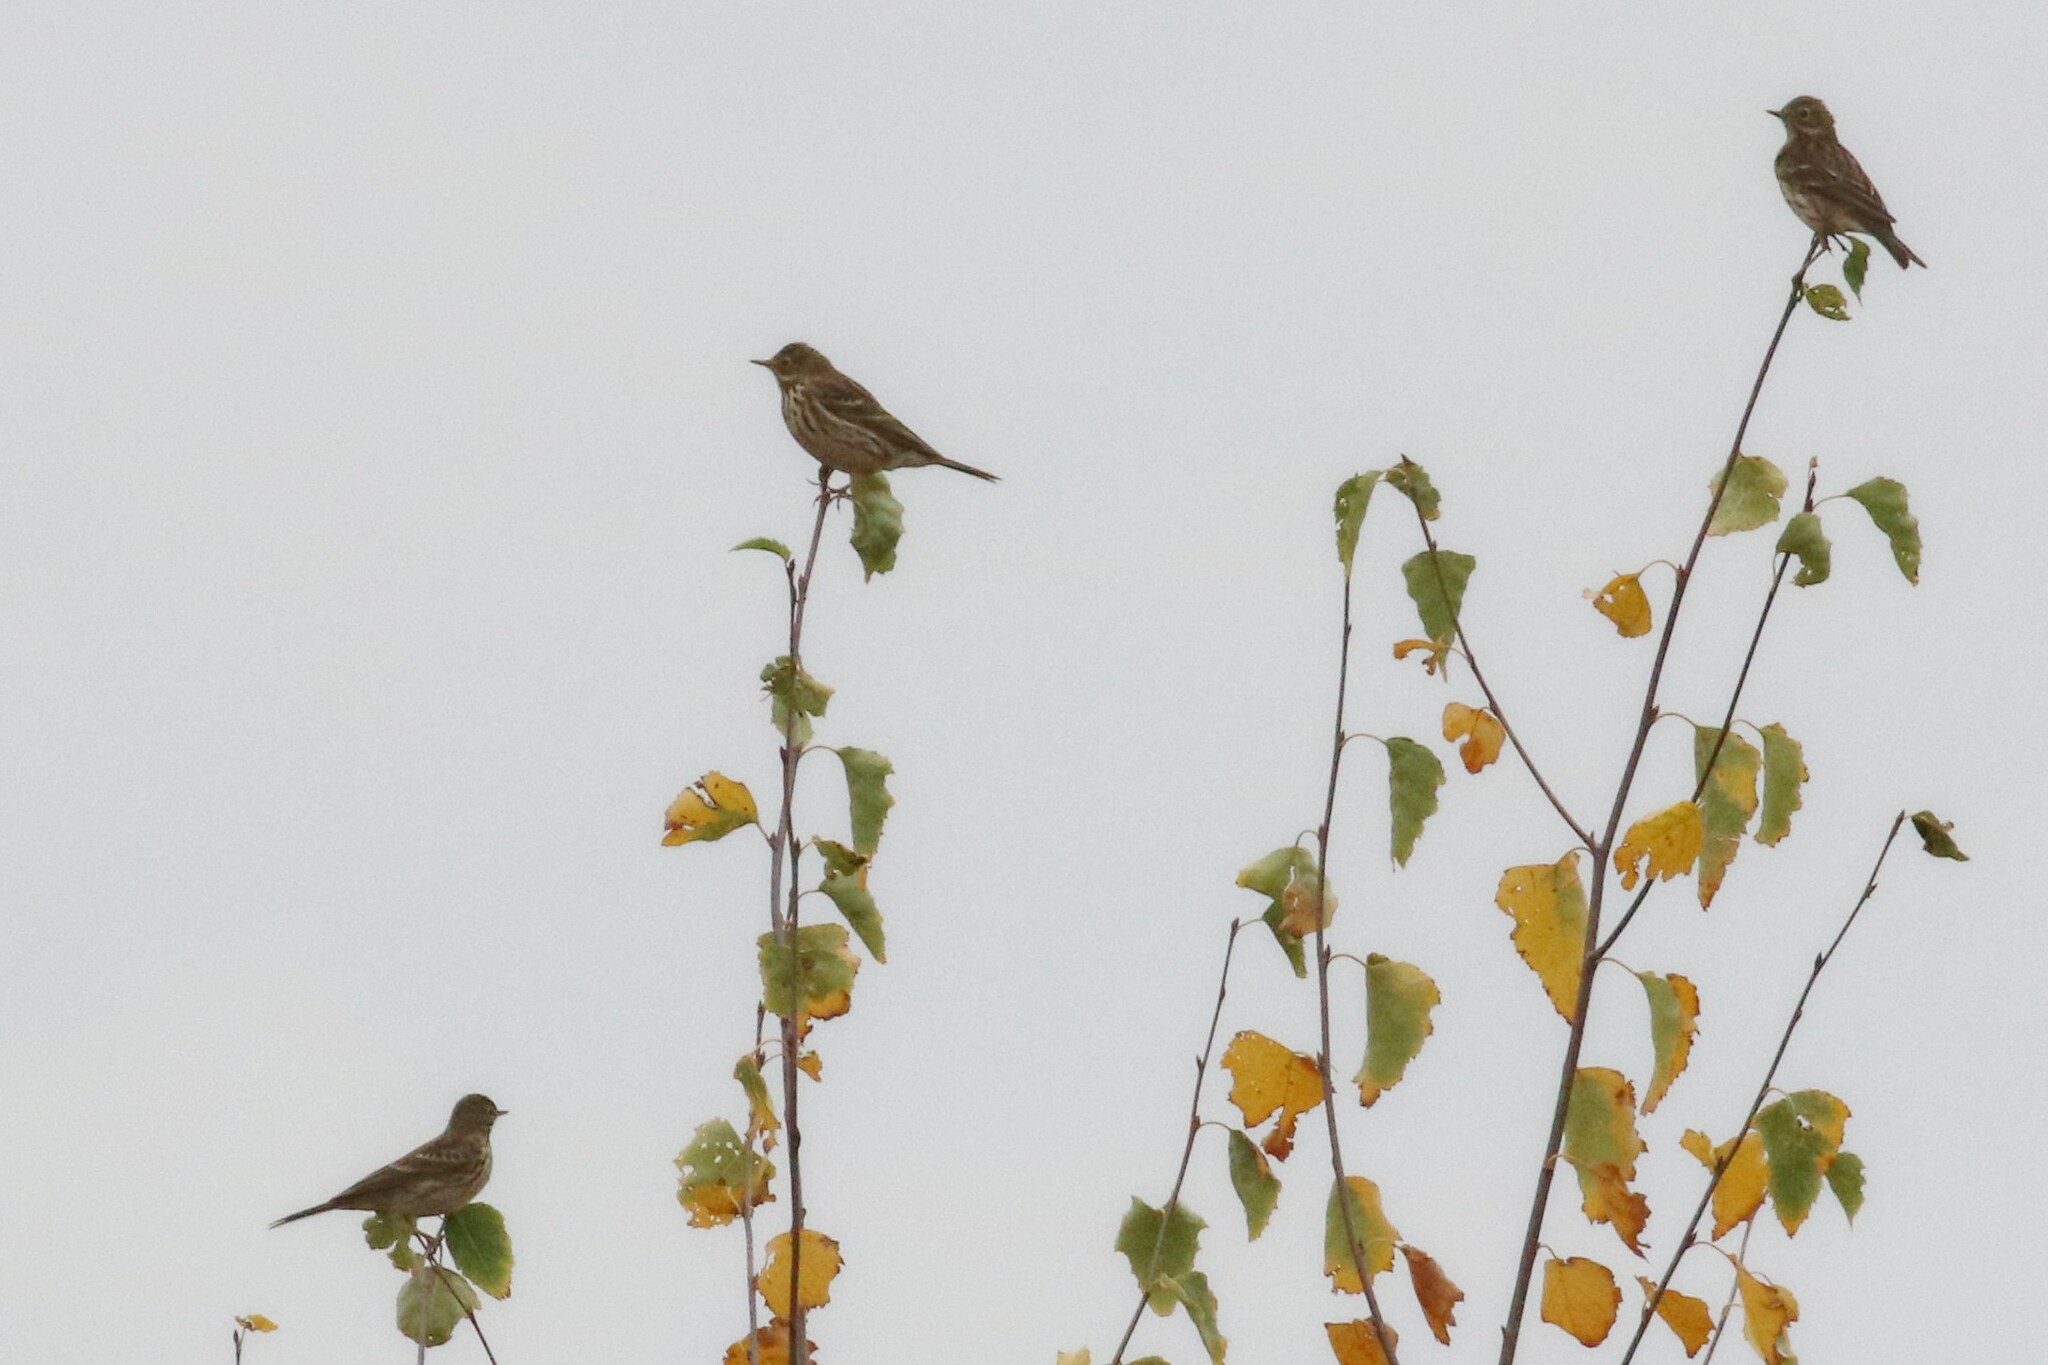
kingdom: Animalia
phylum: Chordata
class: Aves
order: Passeriformes
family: Motacillidae
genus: Anthus
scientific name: Anthus pratensis
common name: Meadow pipit
